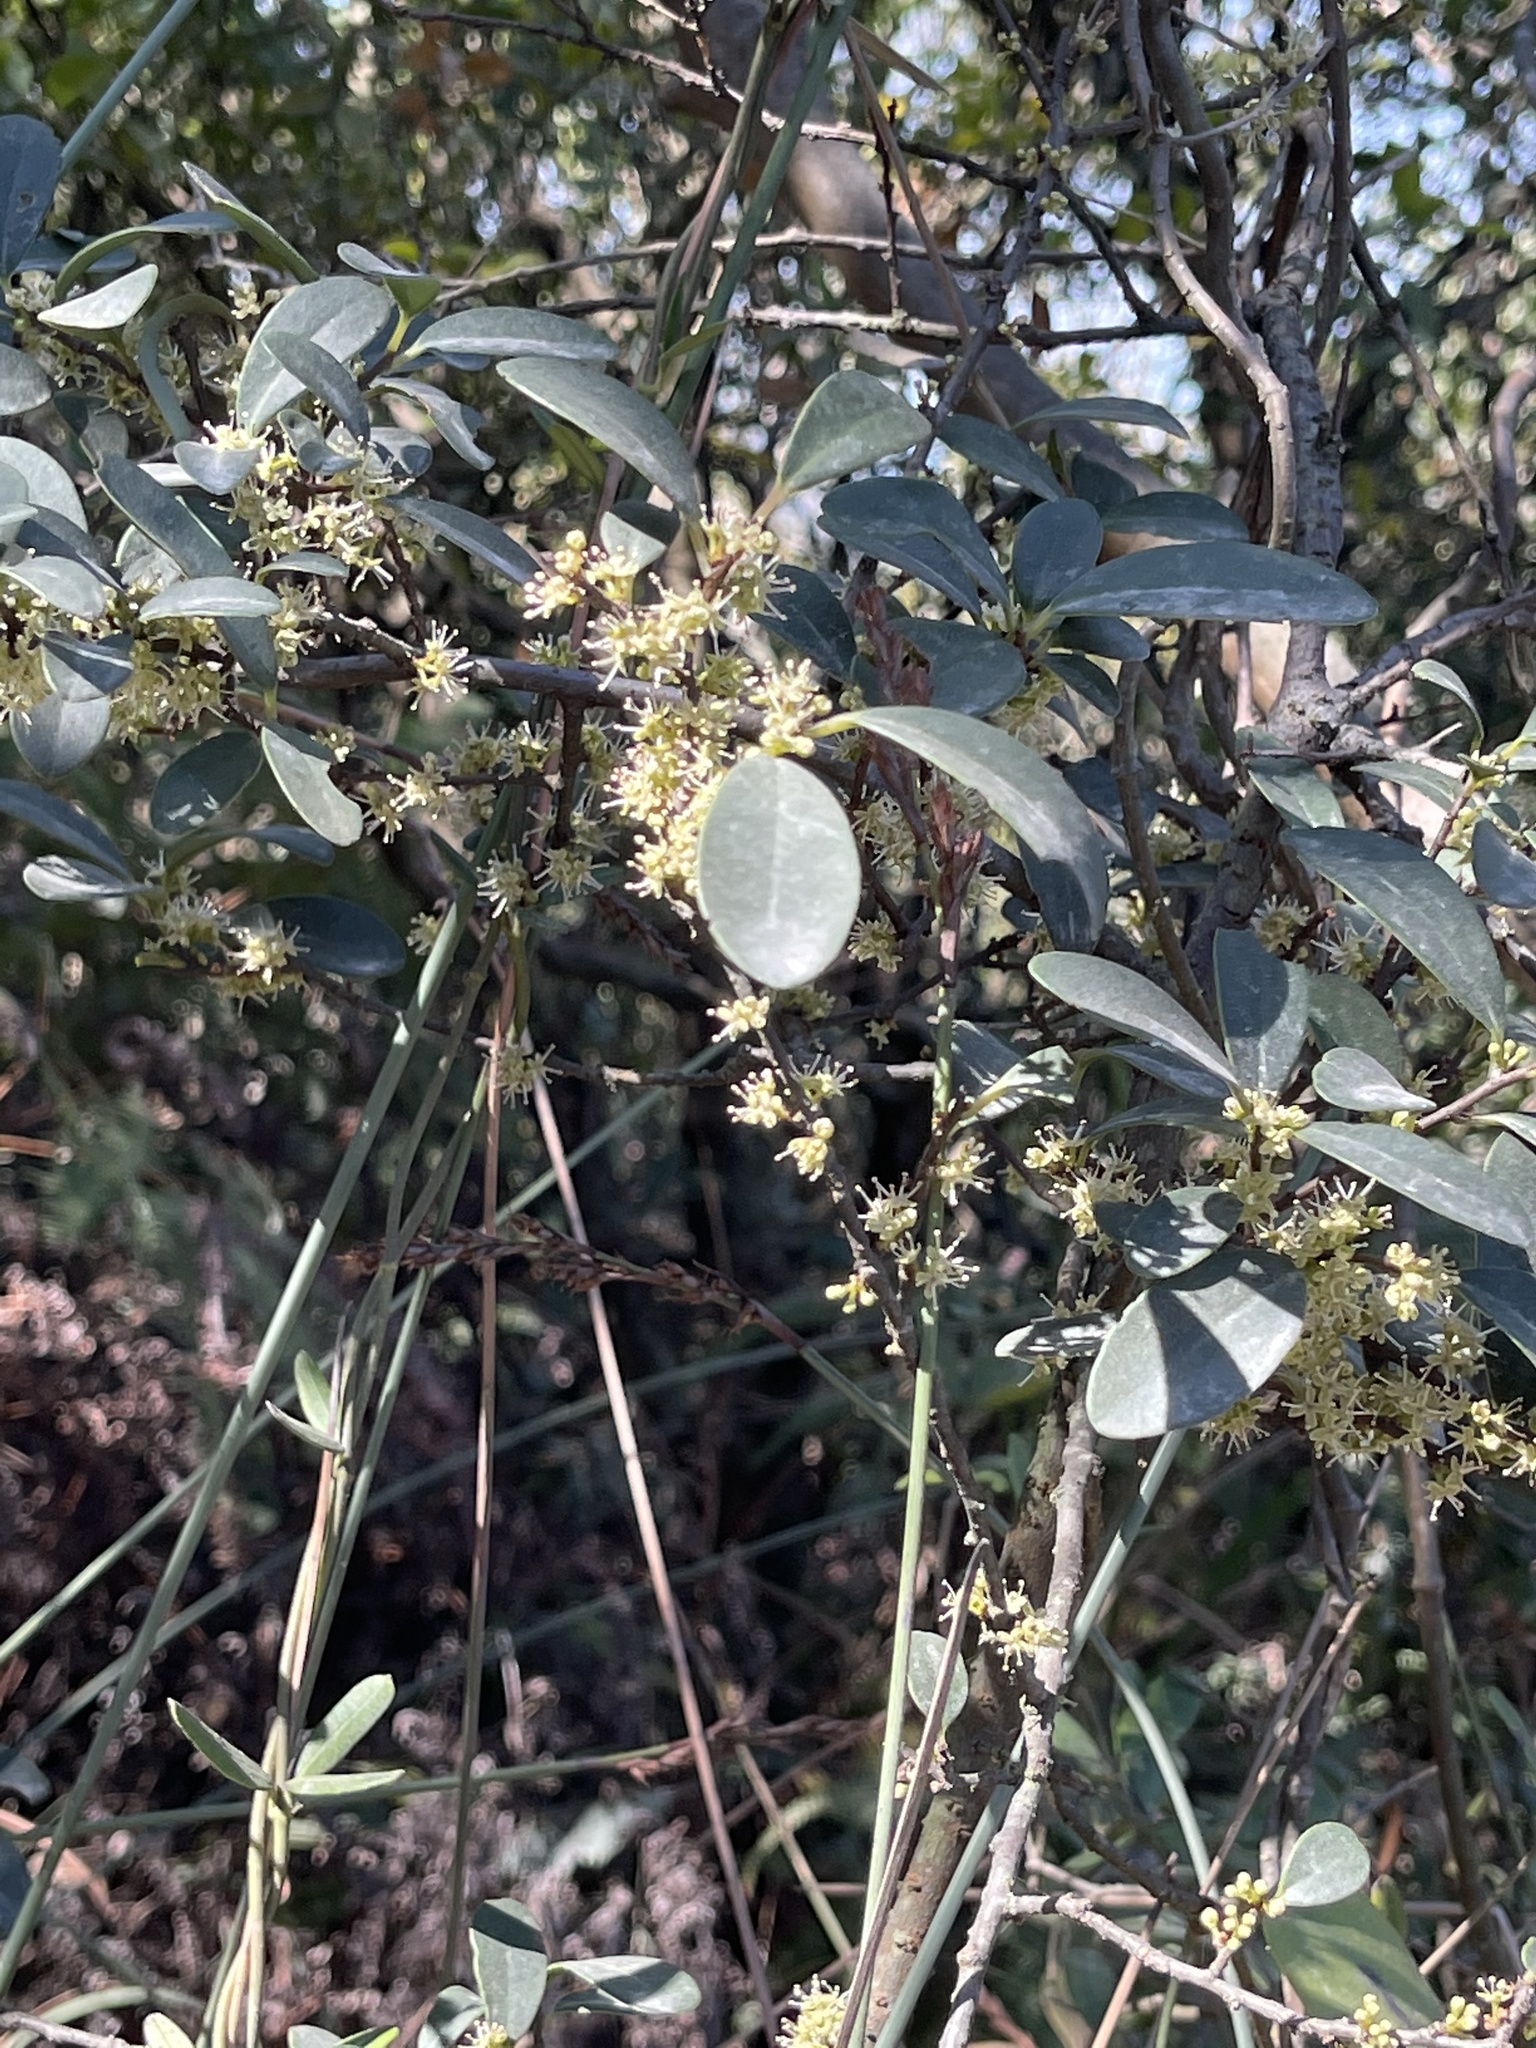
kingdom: Plantae
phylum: Tracheophyta
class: Magnoliopsida
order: Ericales
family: Primulaceae
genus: Embelia
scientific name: Embelia laeta
